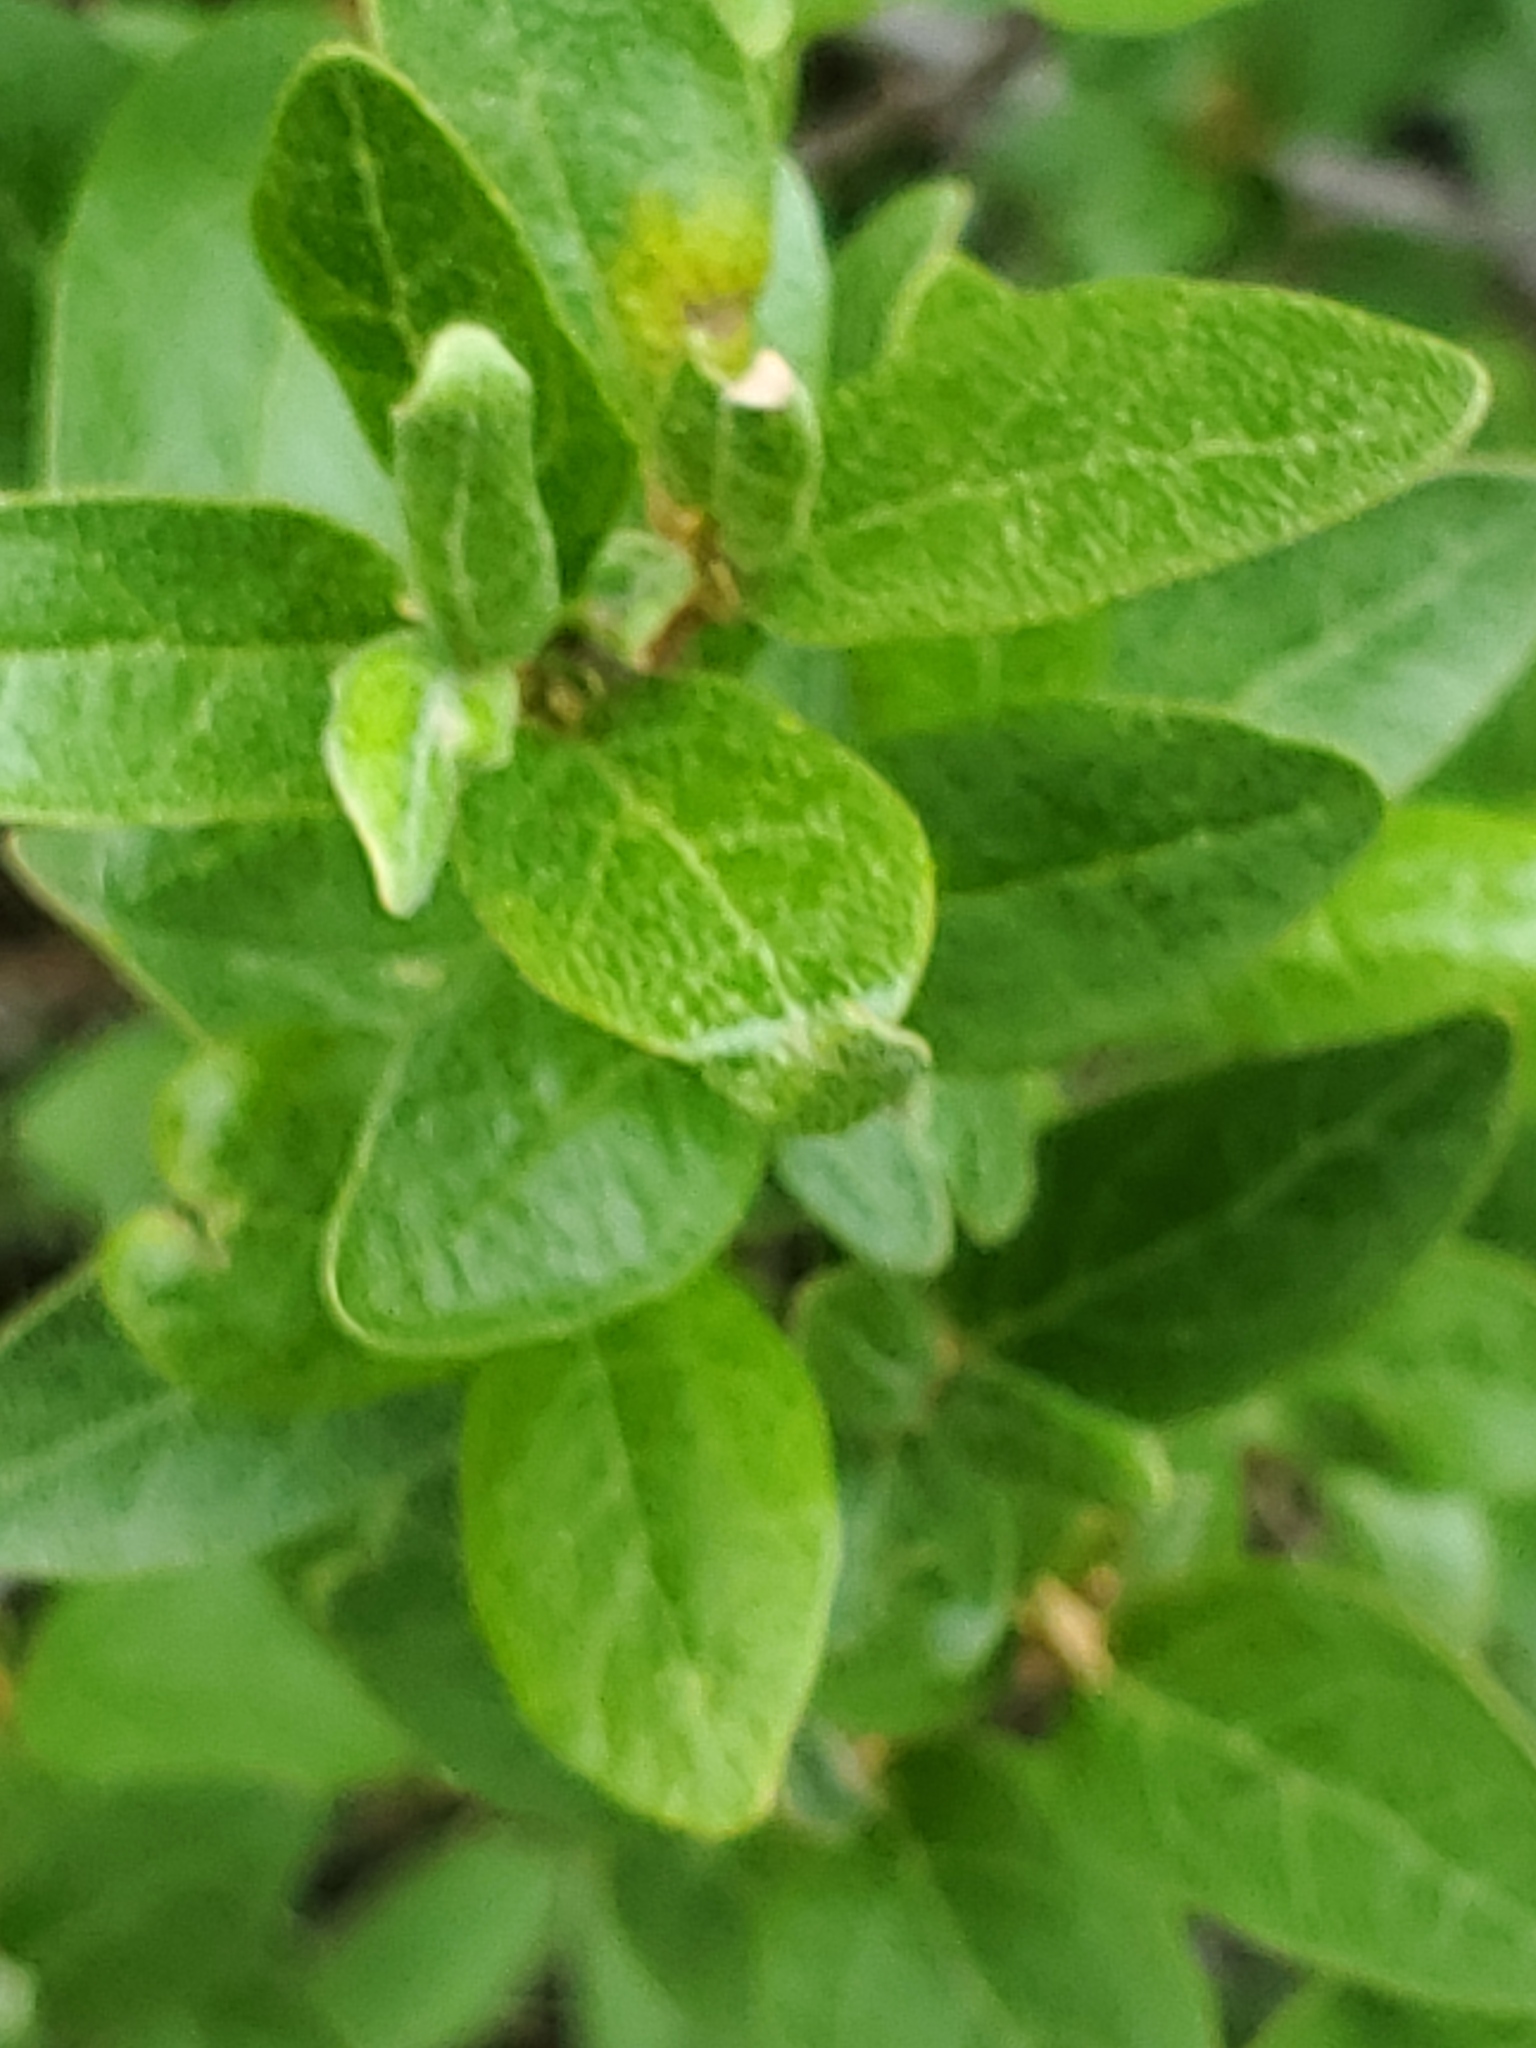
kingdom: Plantae
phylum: Tracheophyta
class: Magnoliopsida
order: Rosales
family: Elaeagnaceae
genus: Shepherdia
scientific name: Shepherdia canadensis
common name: Soapberry
